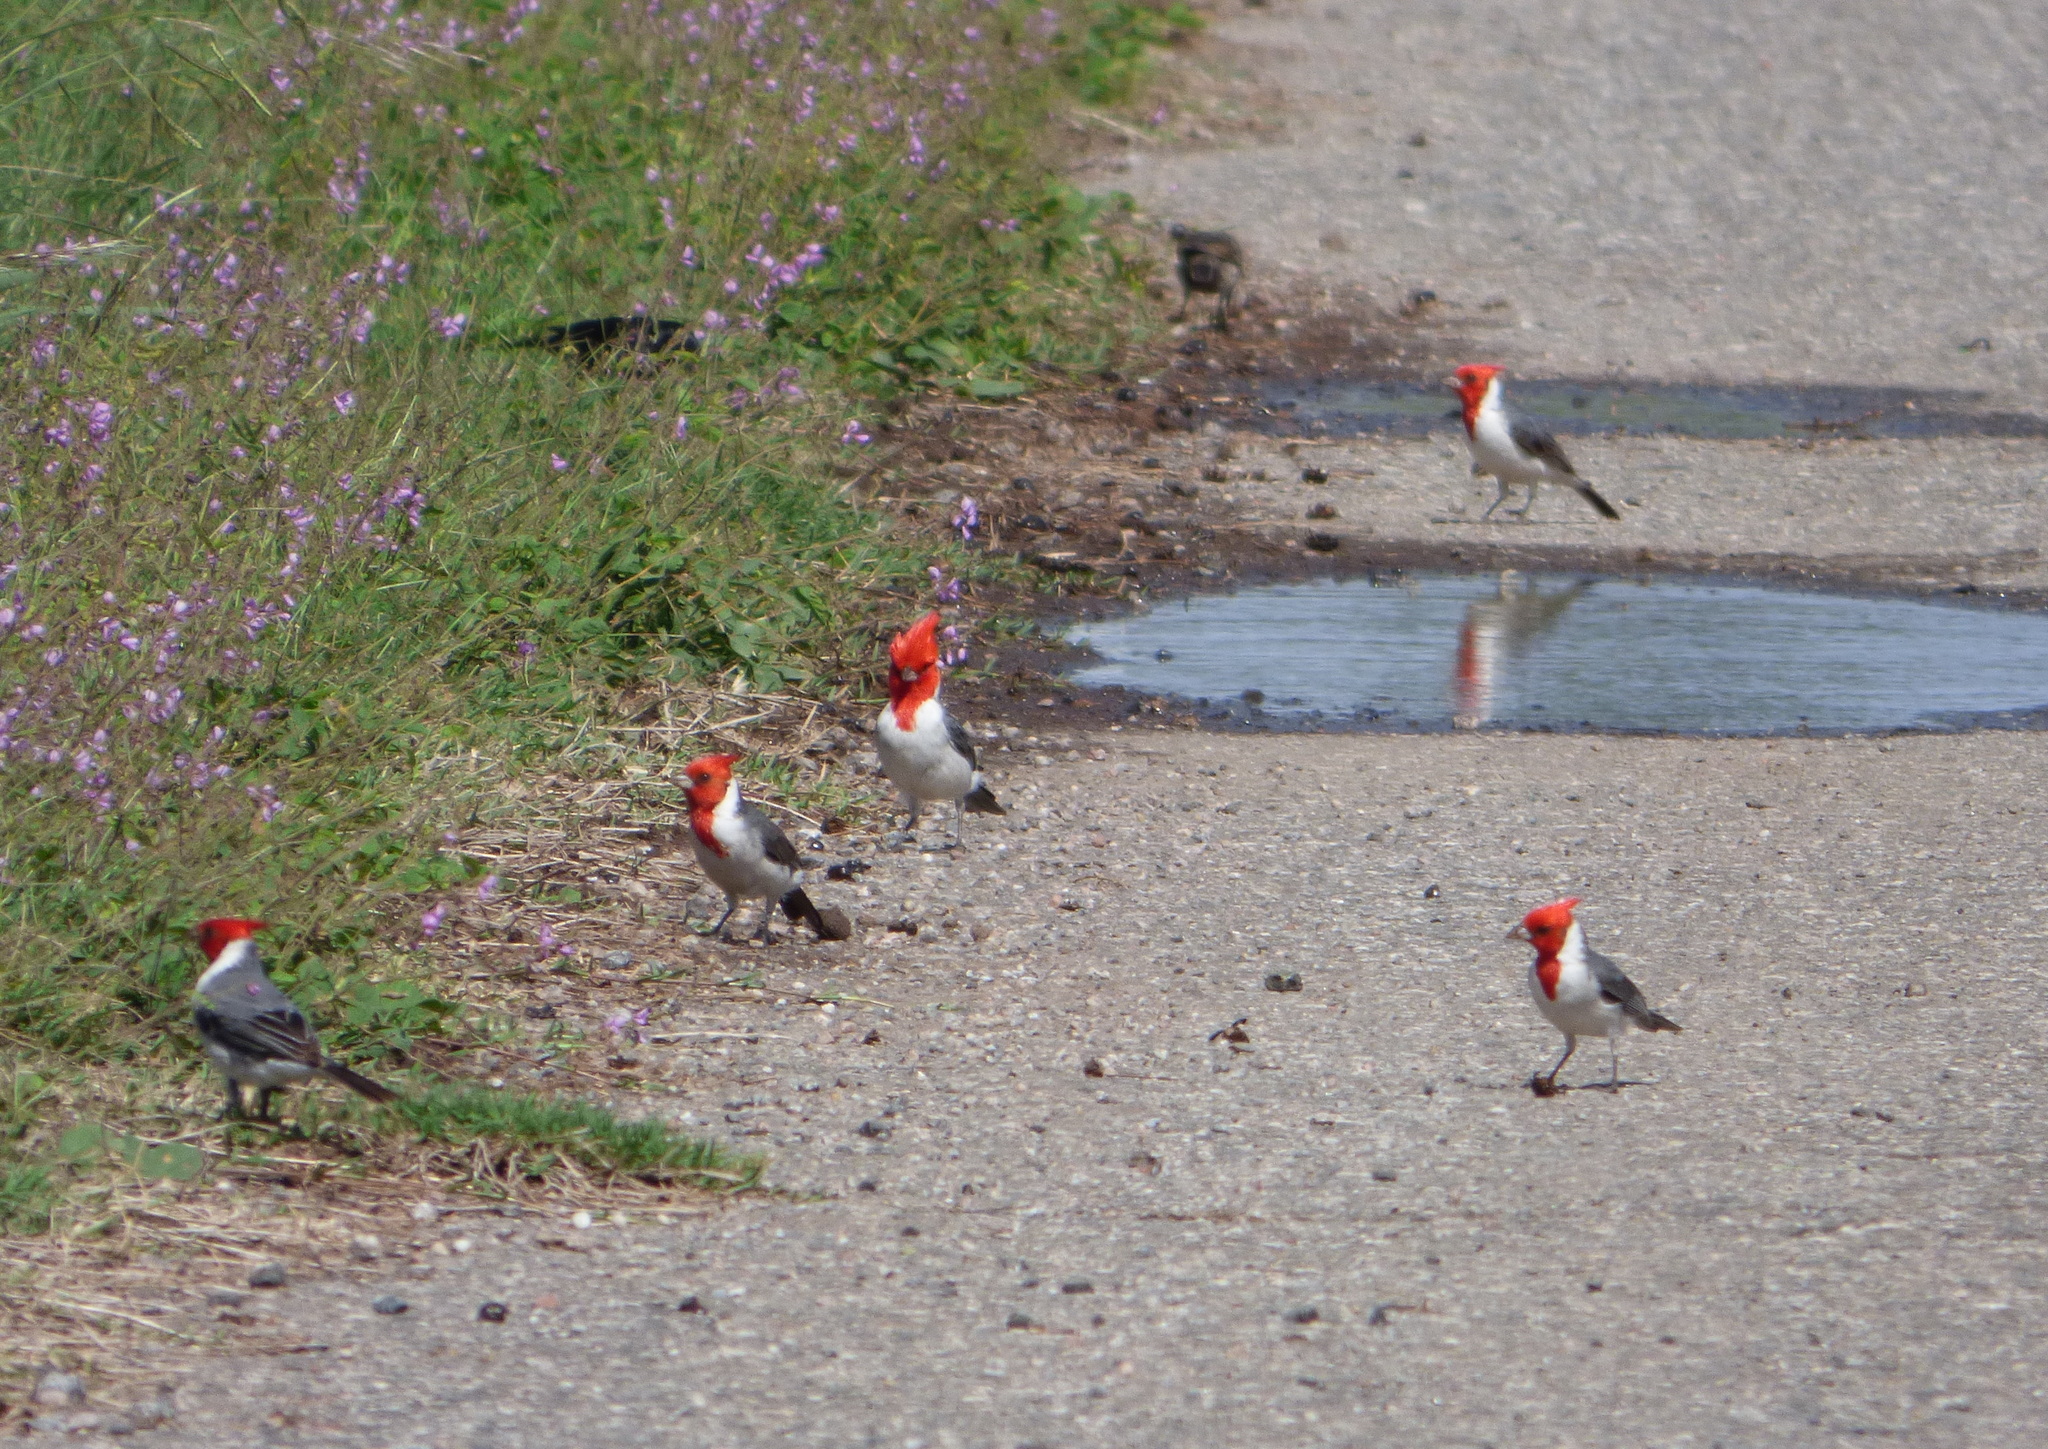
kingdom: Animalia
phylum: Chordata
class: Aves
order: Passeriformes
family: Thraupidae
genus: Paroaria
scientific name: Paroaria coronata
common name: Red-crested cardinal
